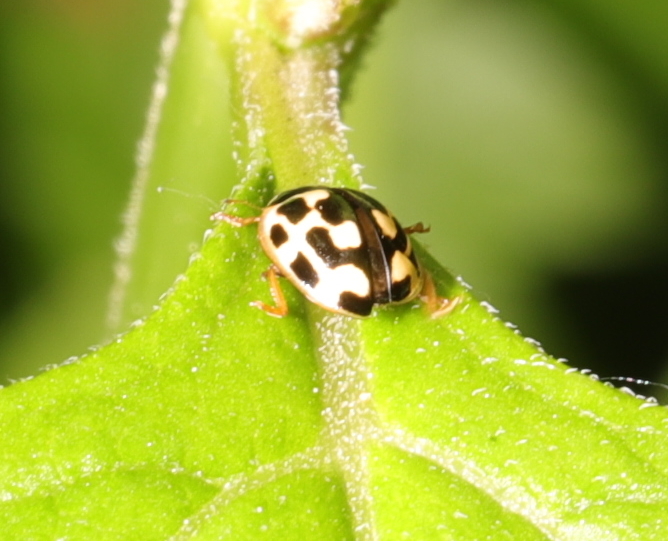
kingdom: Animalia
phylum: Arthropoda
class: Insecta
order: Coleoptera
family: Coccinellidae
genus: Propylaea
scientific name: Propylaea quatuordecimpunctata
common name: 14-spotted ladybird beetle
